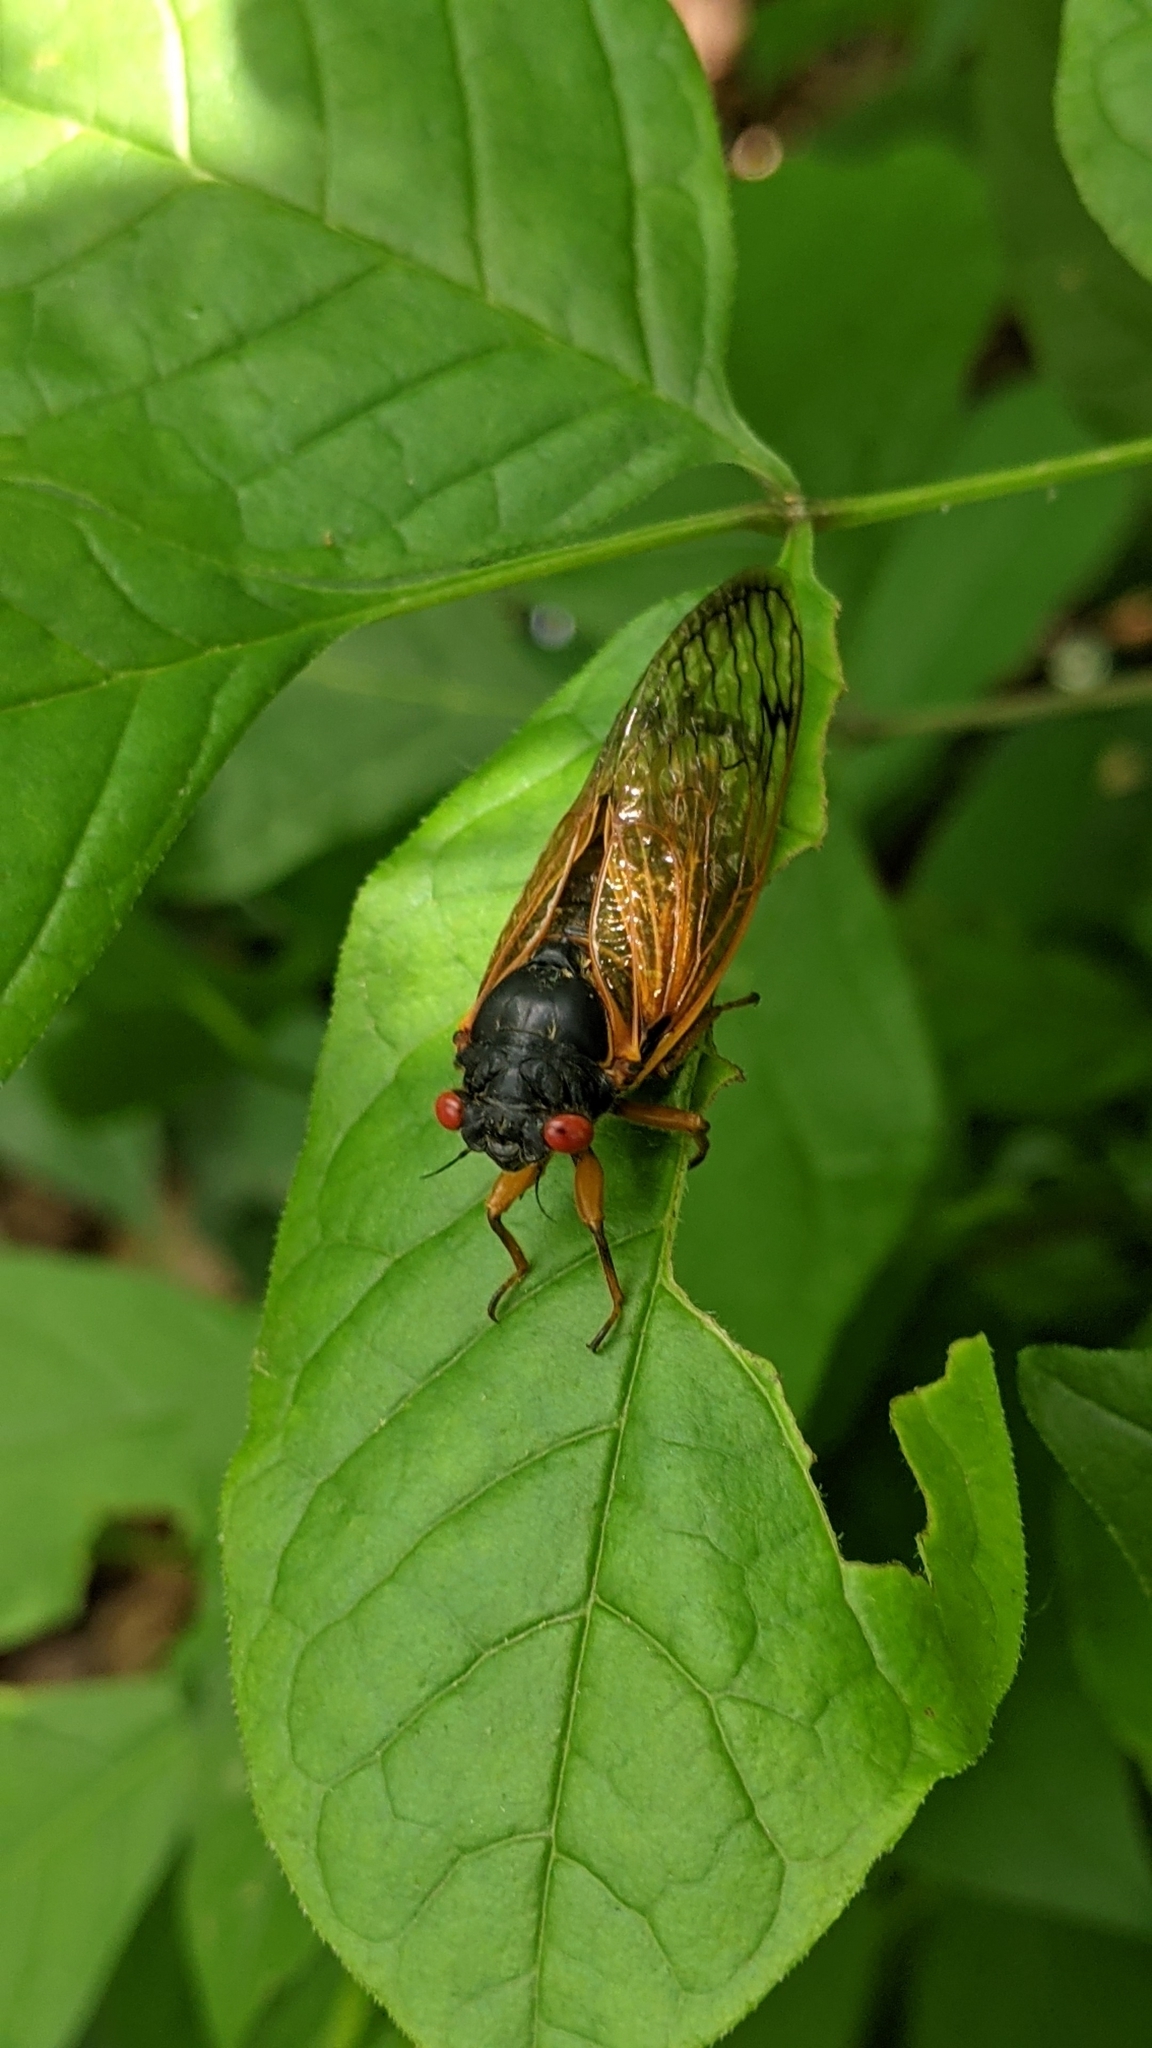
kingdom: Animalia
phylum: Arthropoda
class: Insecta
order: Hemiptera
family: Cicadidae
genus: Magicicada
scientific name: Magicicada cassini
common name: Cassin's 17-year cicada
